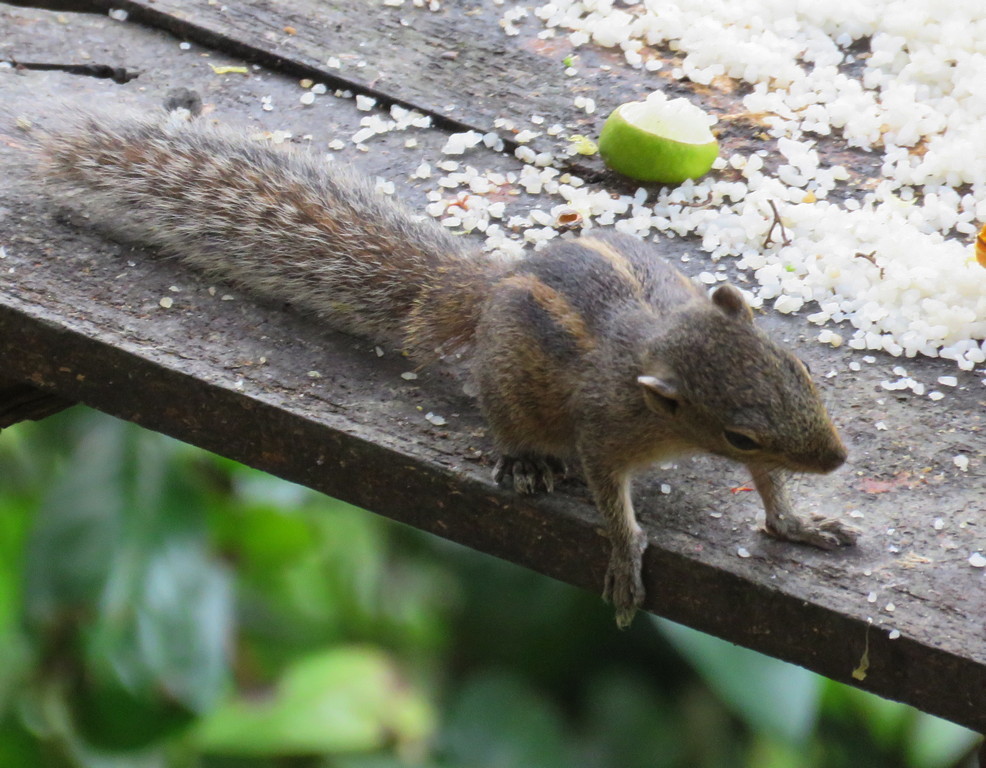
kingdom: Animalia
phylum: Chordata
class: Mammalia
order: Rodentia
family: Sciuridae
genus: Funambulus
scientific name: Funambulus palmarum
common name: Indian palm squirrel
